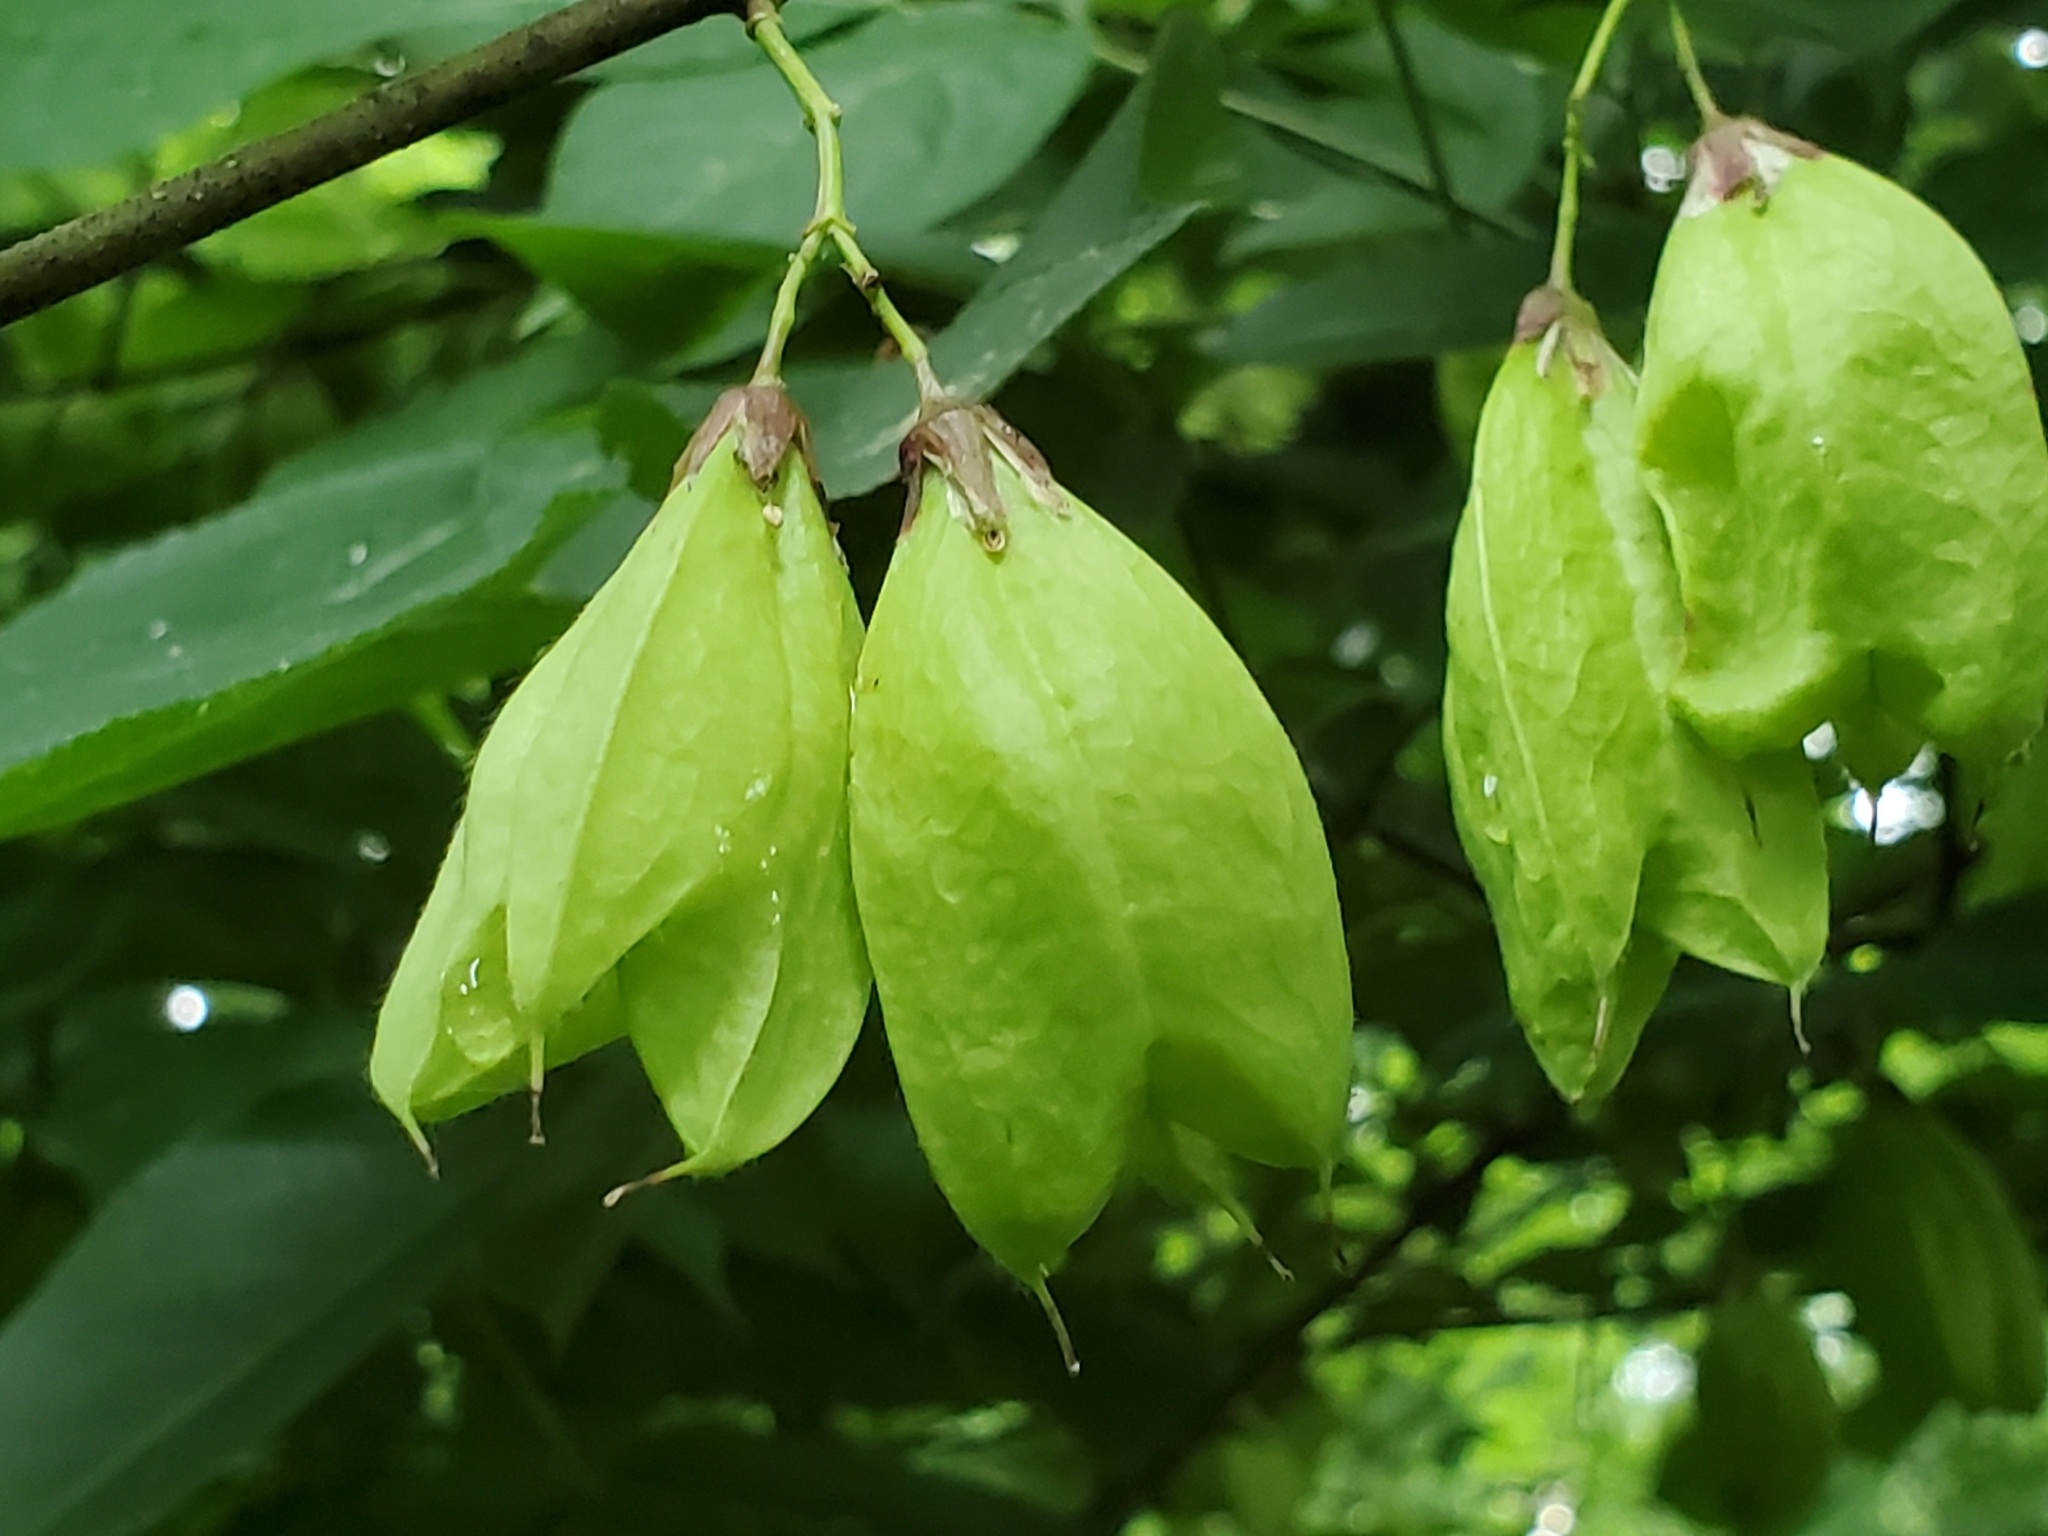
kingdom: Plantae
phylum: Tracheophyta
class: Magnoliopsida
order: Crossosomatales
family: Staphyleaceae
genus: Staphylea
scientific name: Staphylea trifolia
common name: American bladdernut
